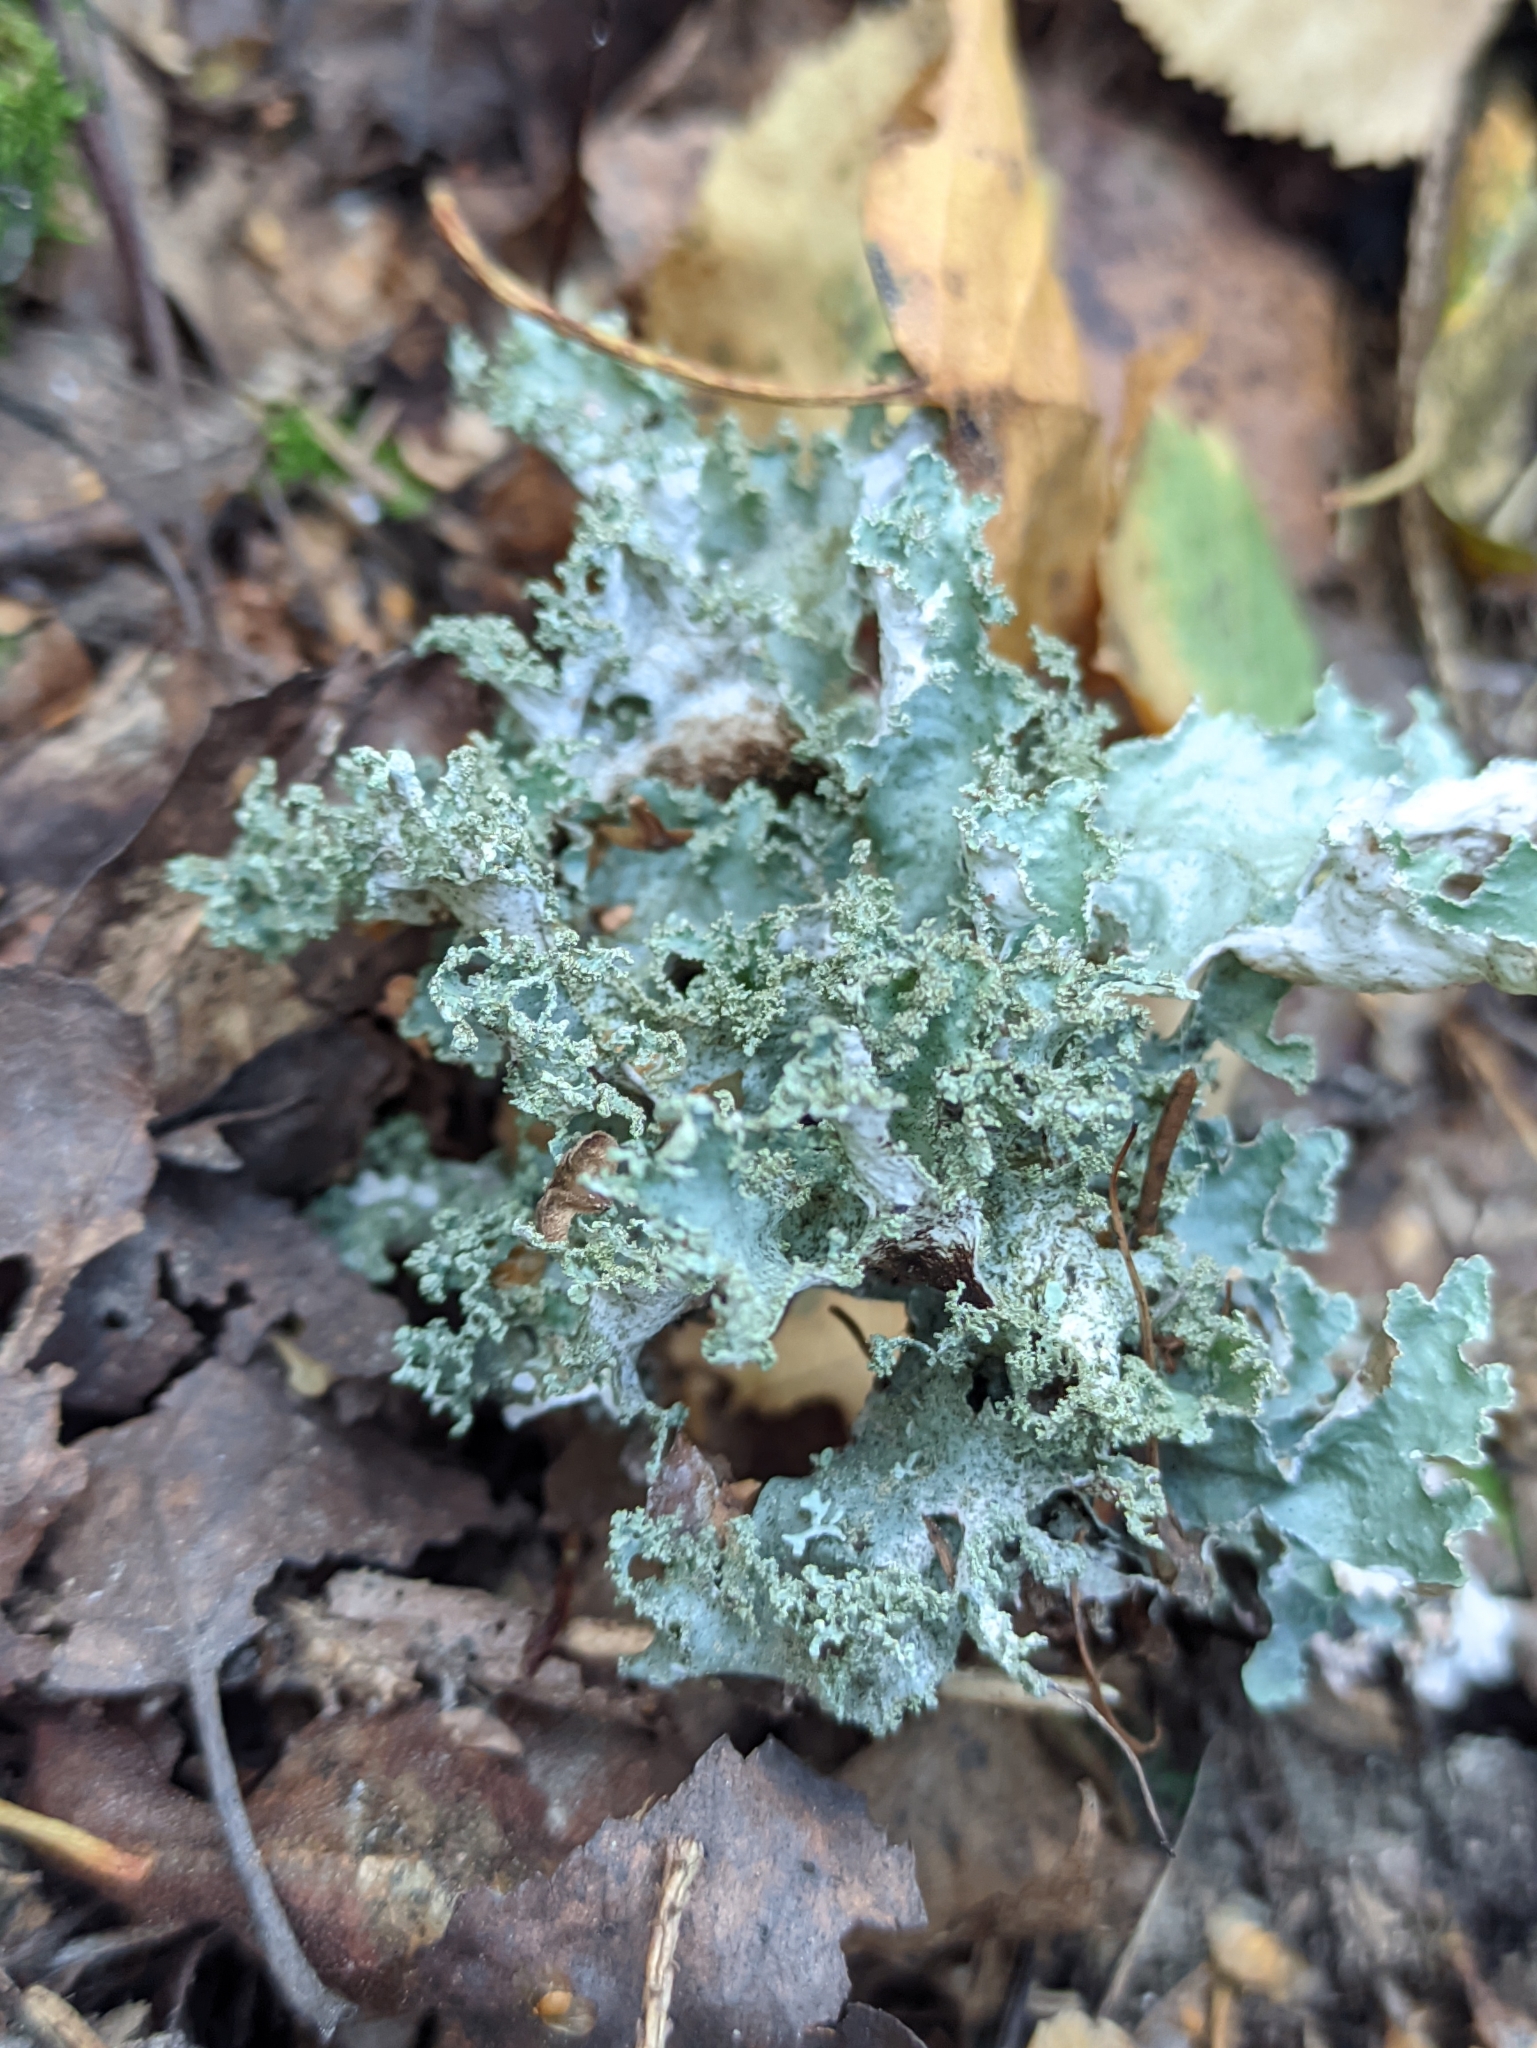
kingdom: Fungi
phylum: Ascomycota
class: Lecanoromycetes
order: Lecanorales
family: Parmeliaceae
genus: Platismatia
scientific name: Platismatia glauca
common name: Varied rag lichen
